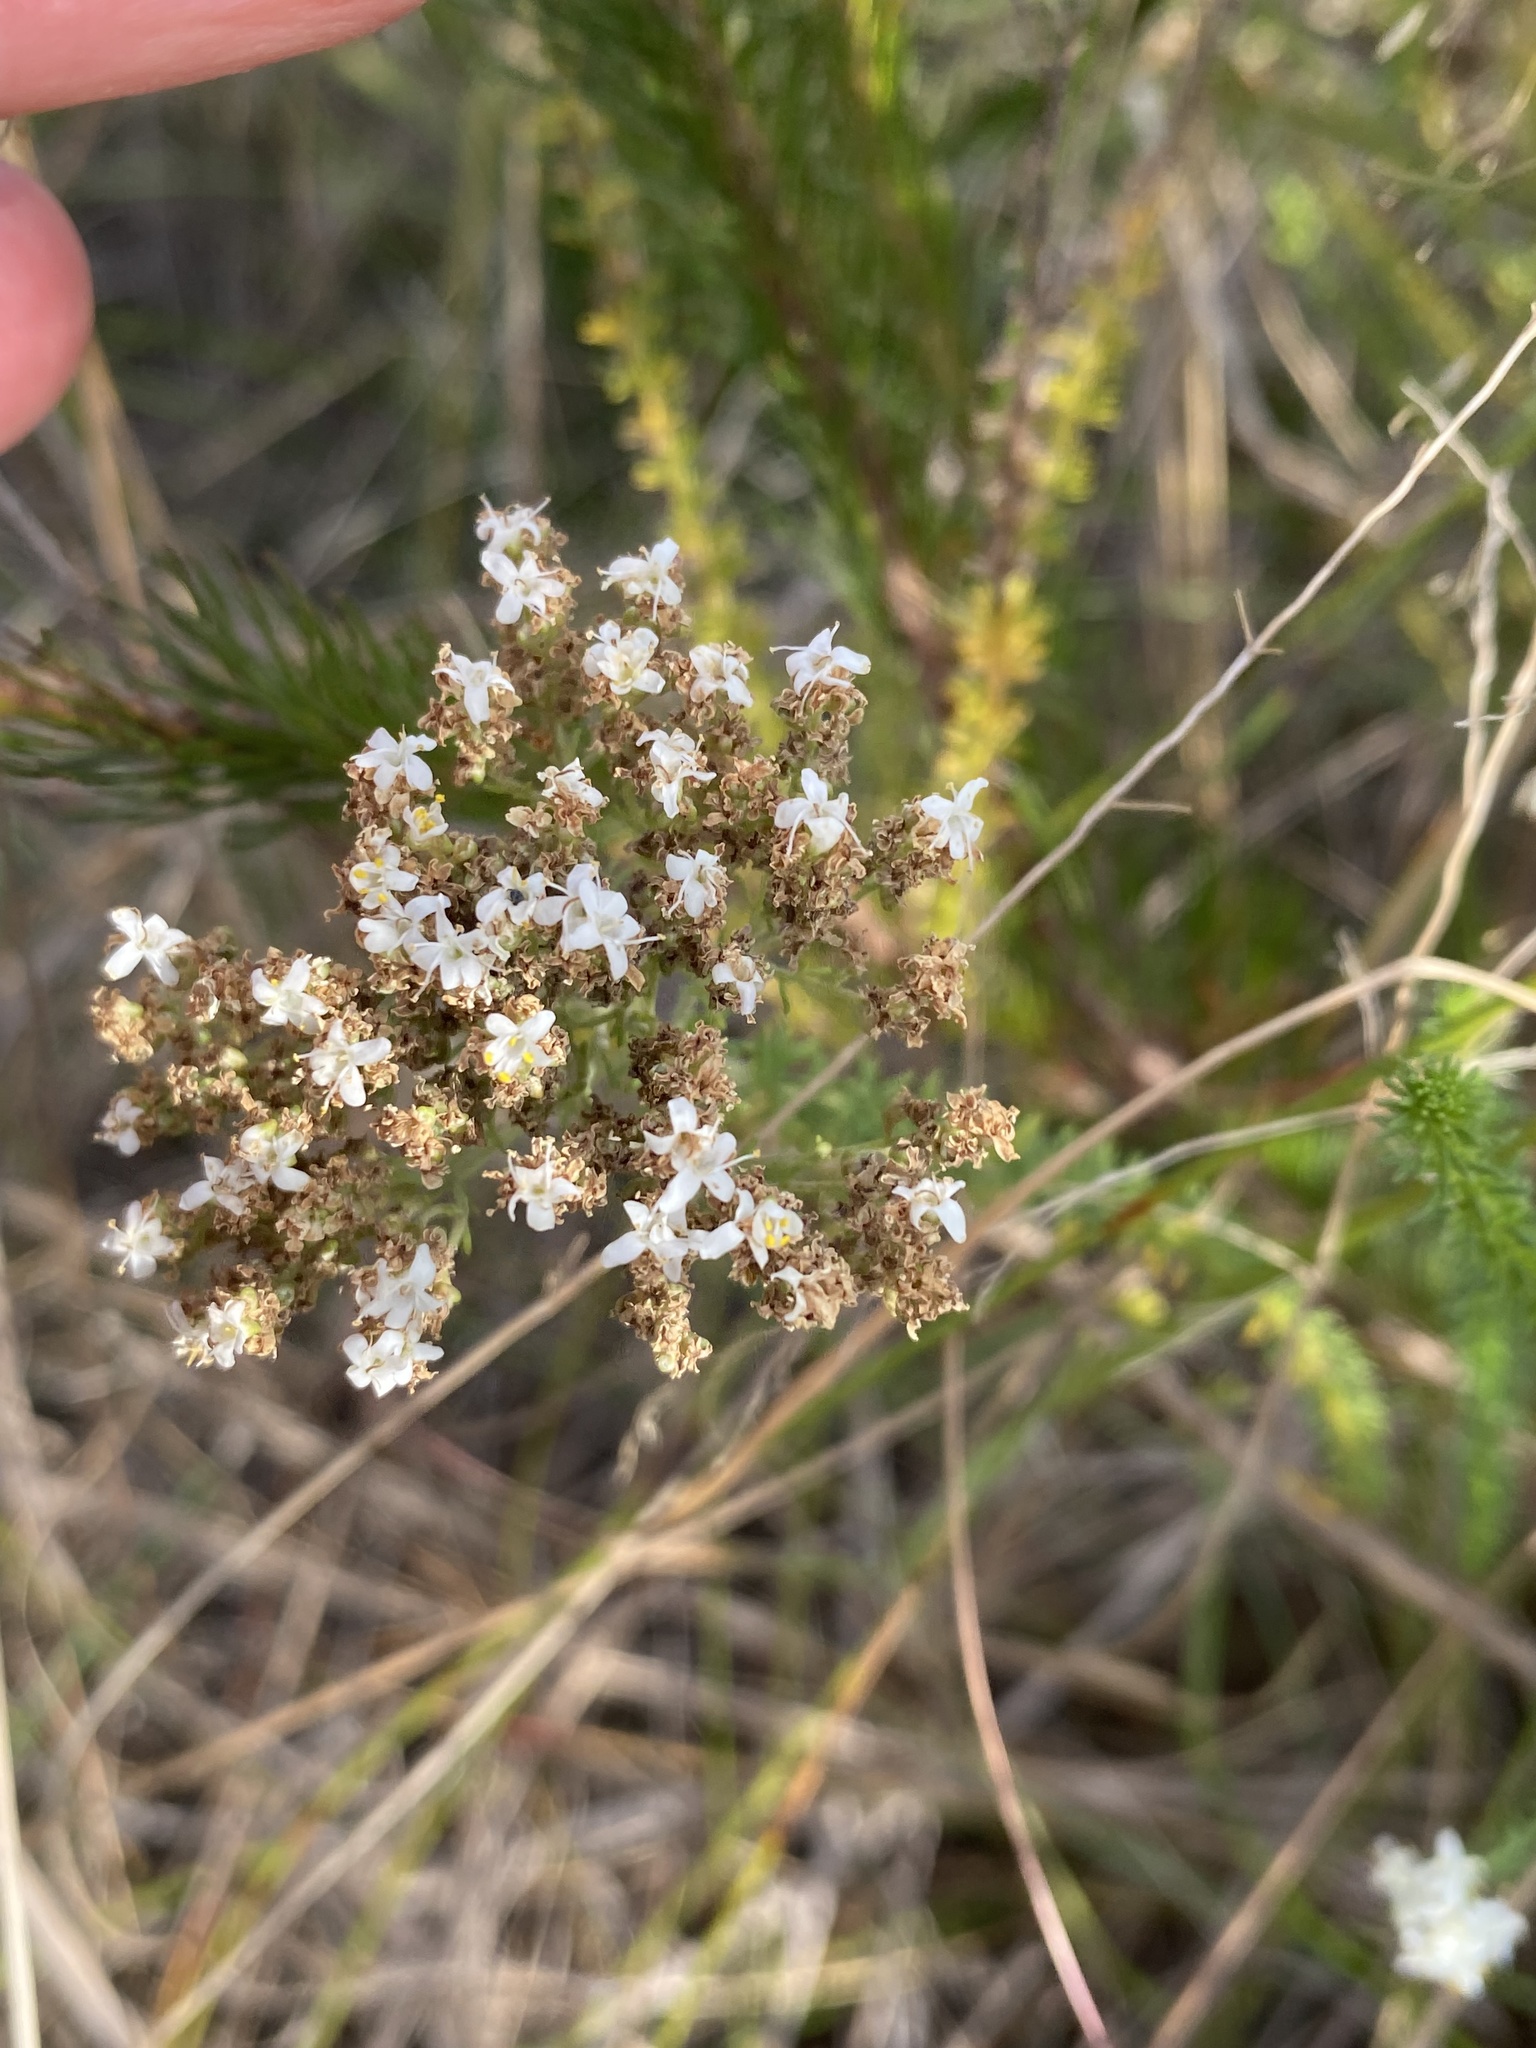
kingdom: Plantae
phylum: Tracheophyta
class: Magnoliopsida
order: Lamiales
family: Scrophulariaceae
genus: Selago
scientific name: Selago dolosa
